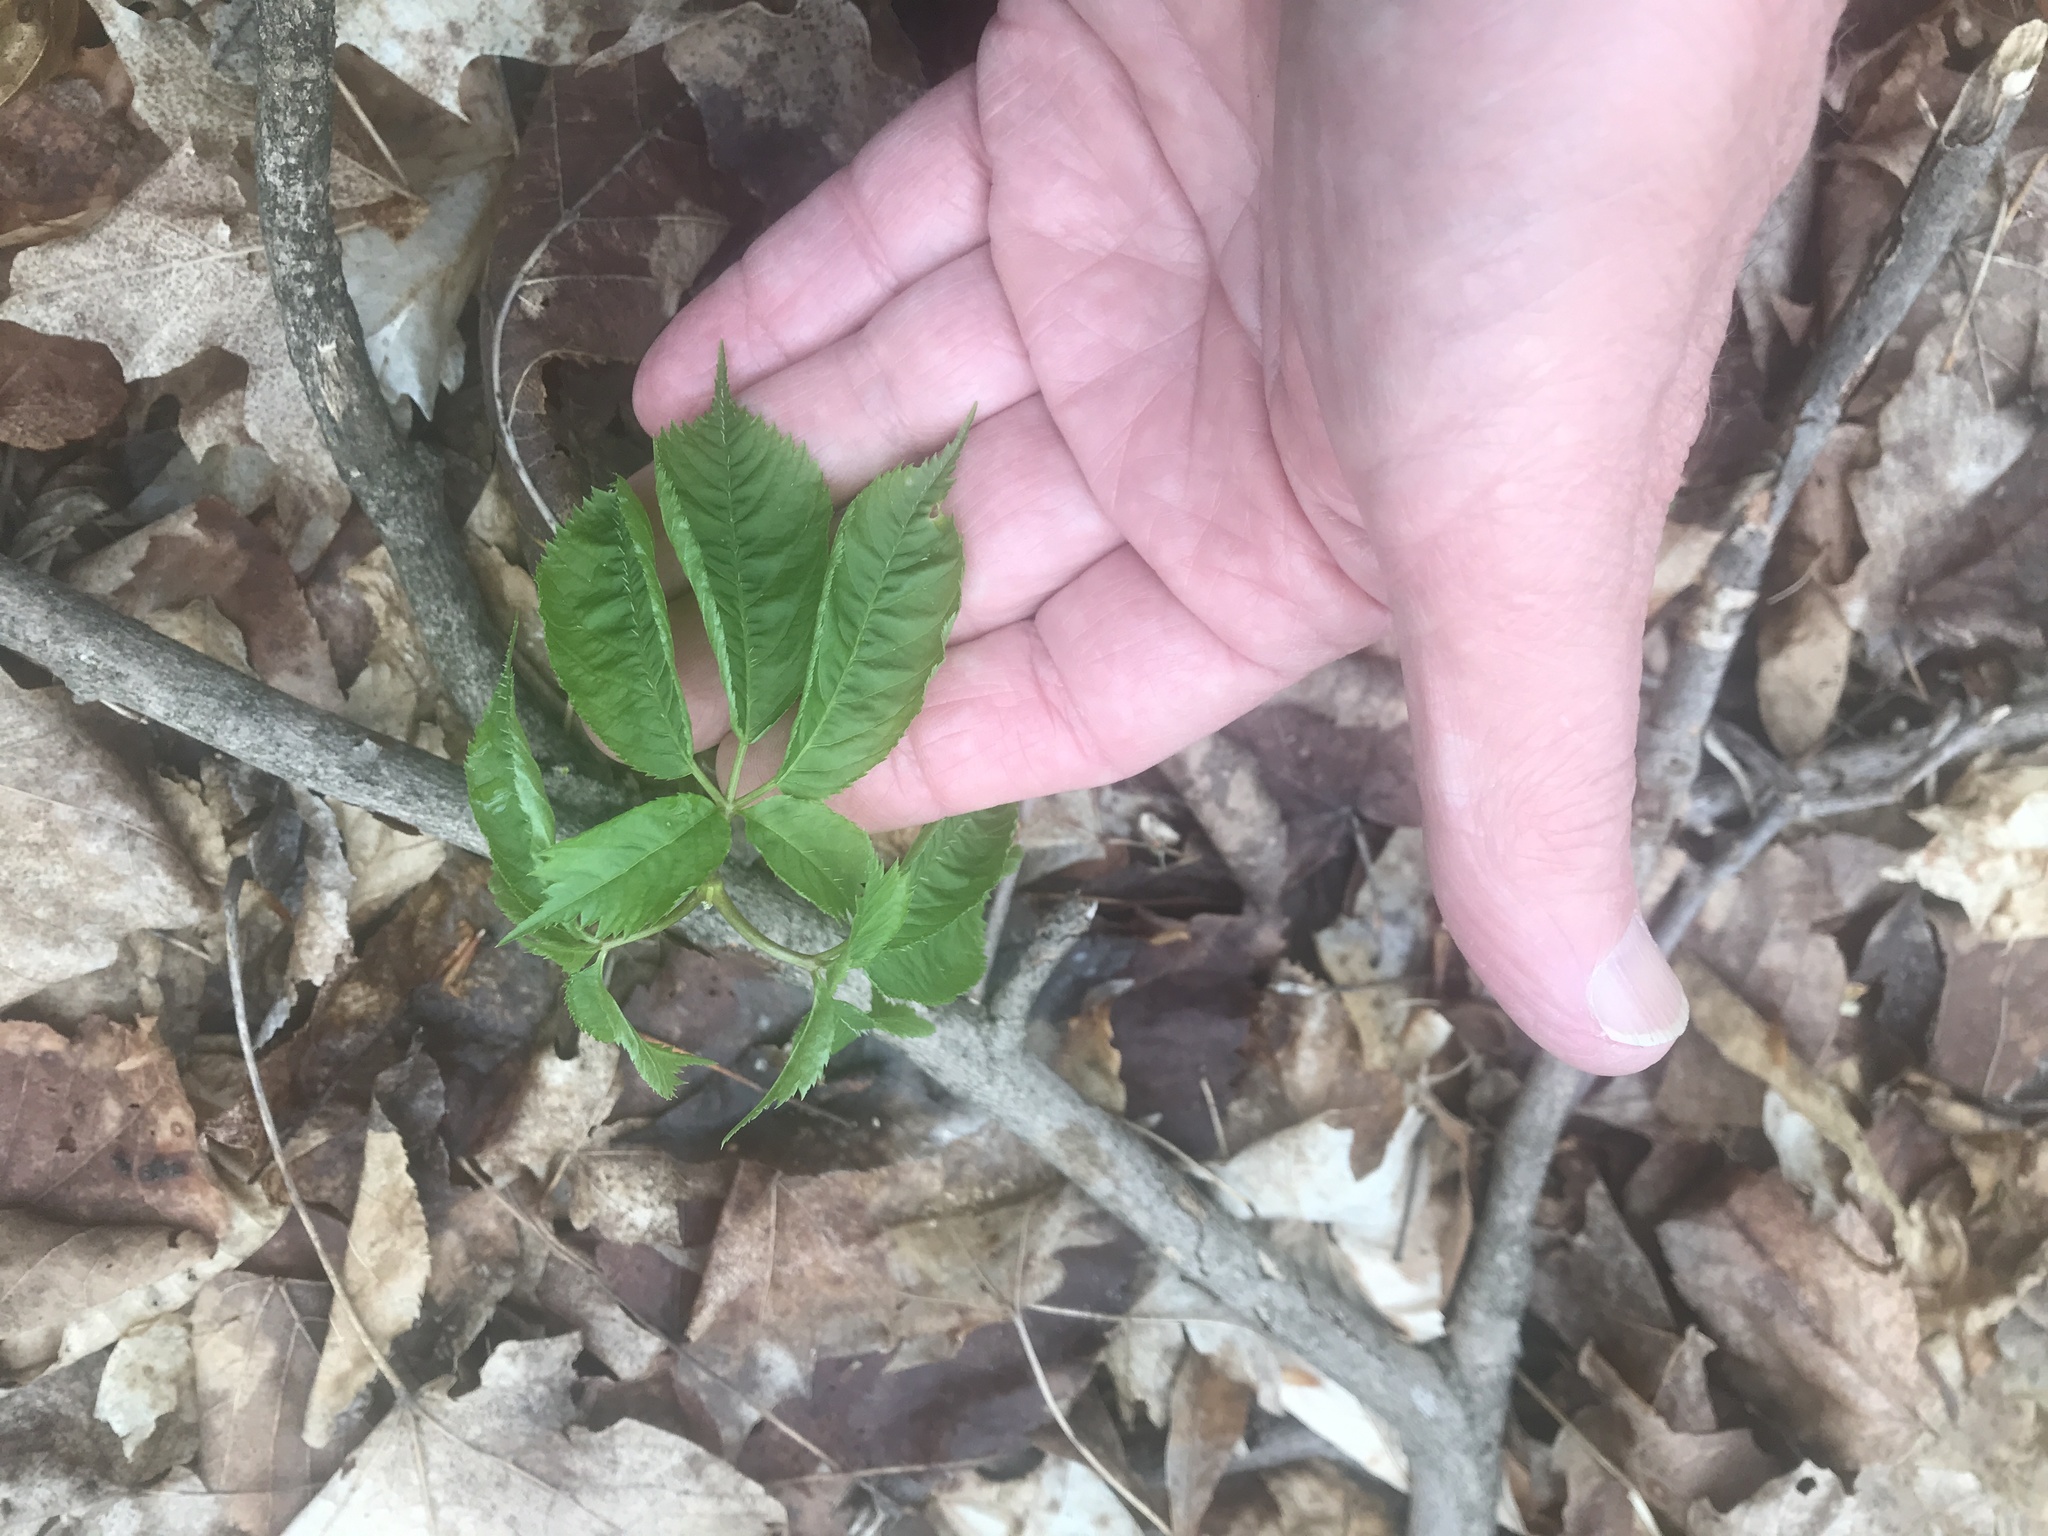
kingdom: Plantae
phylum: Tracheophyta
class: Magnoliopsida
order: Apiales
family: Araliaceae
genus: Panax
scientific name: Panax quinquefolius
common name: American ginseng
